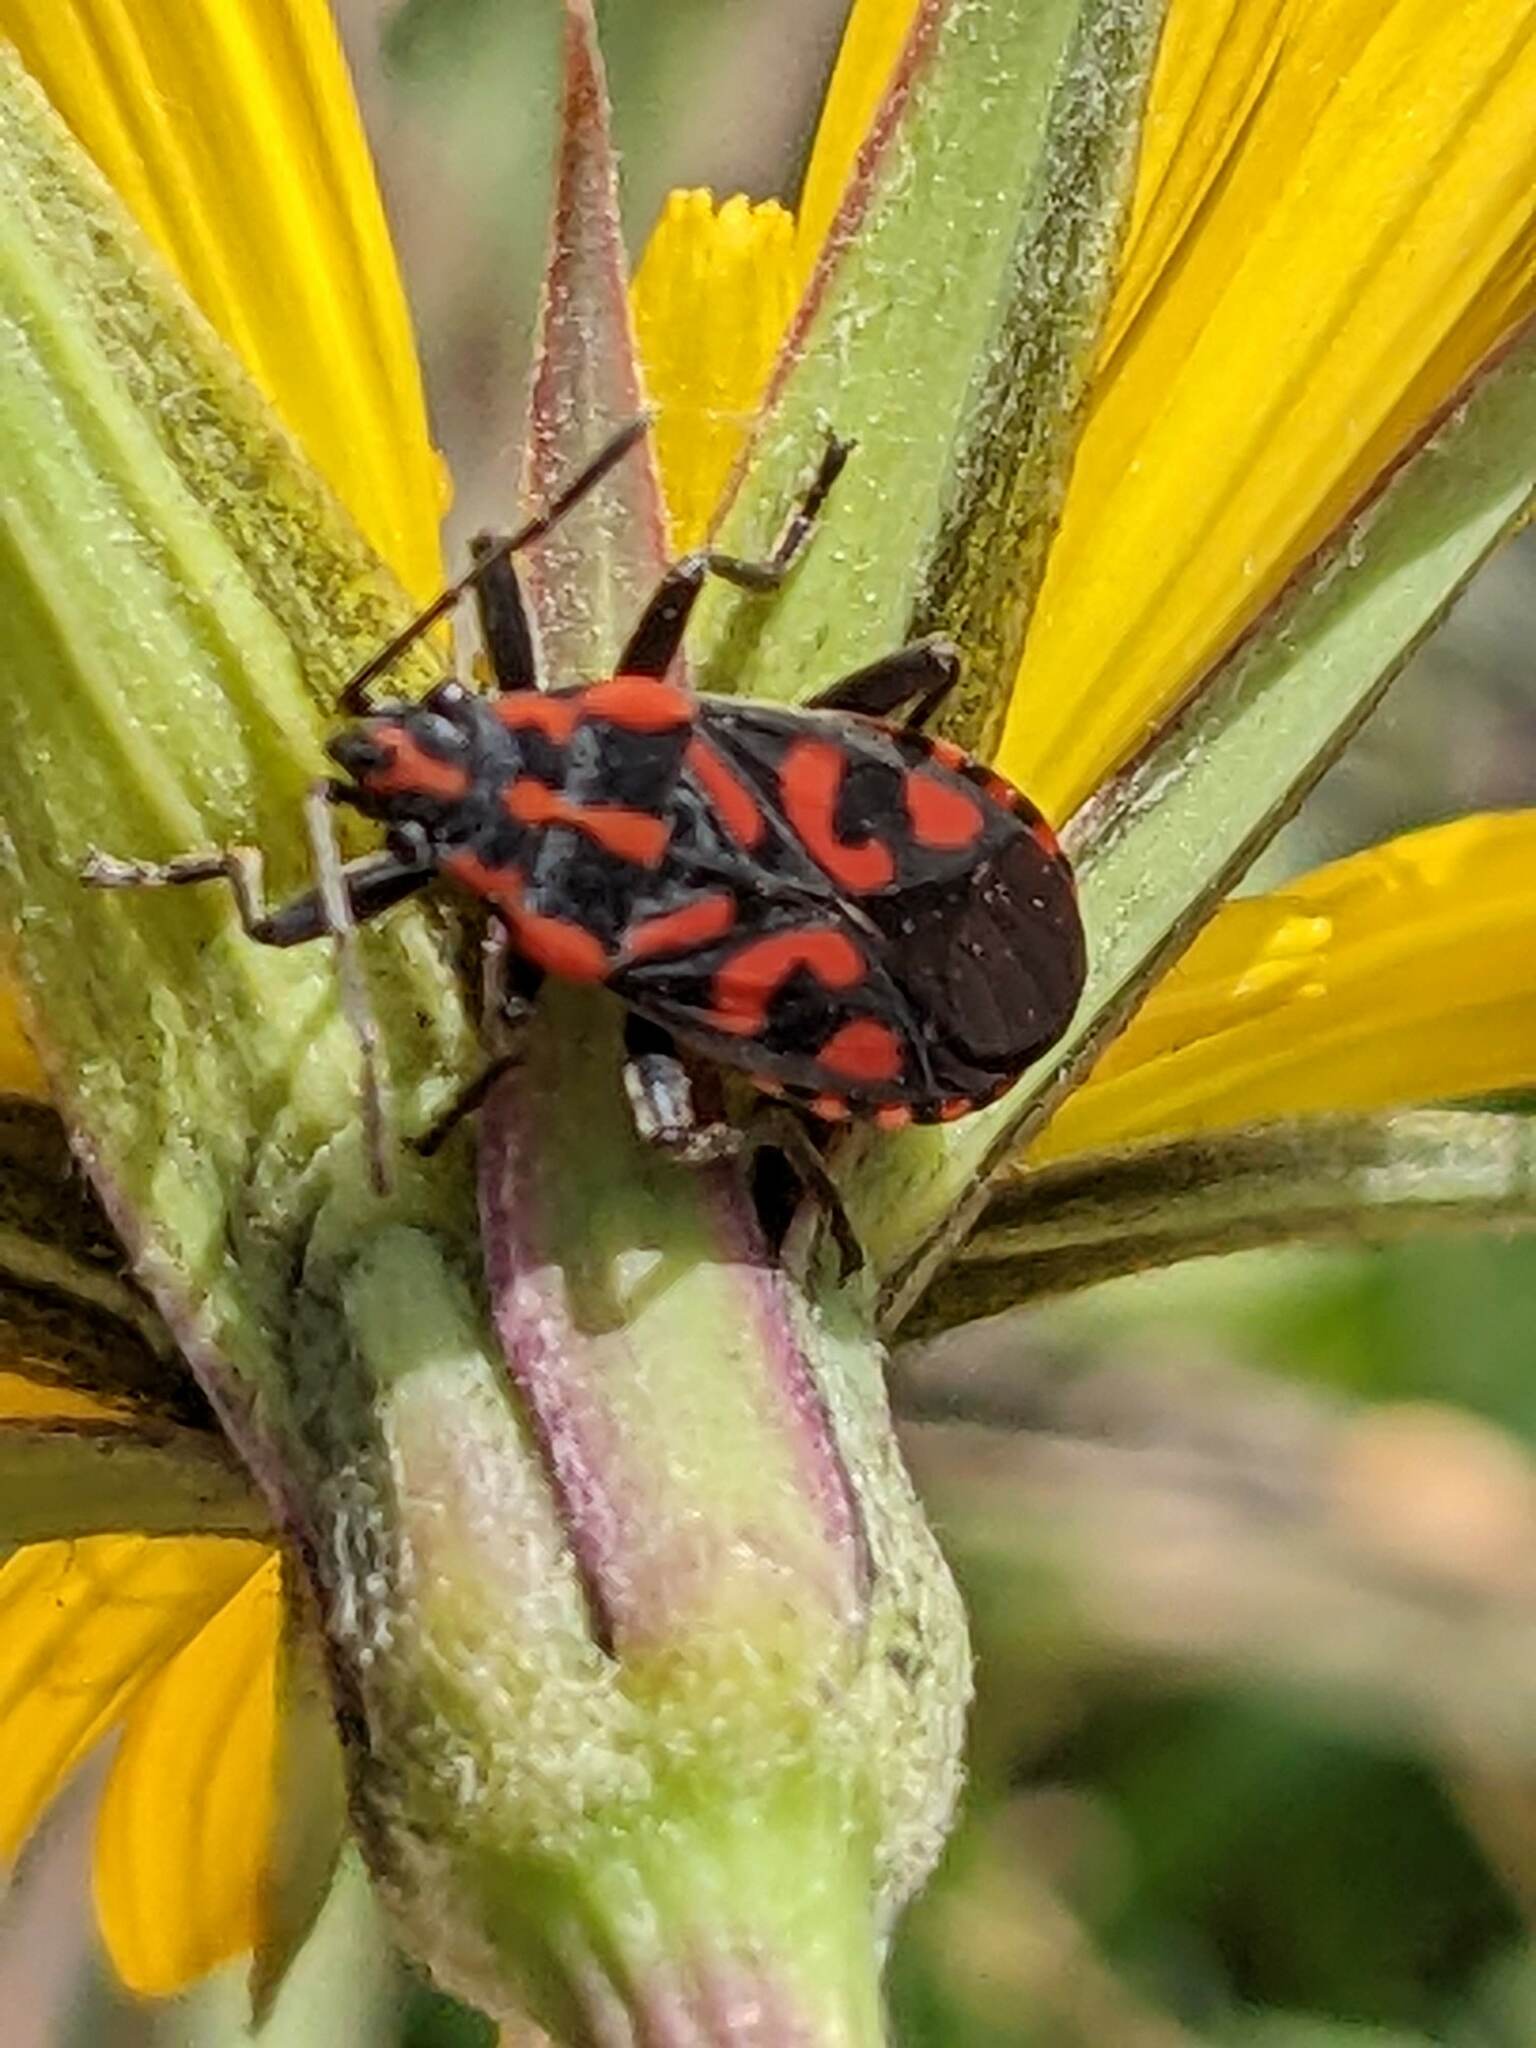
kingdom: Animalia
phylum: Arthropoda
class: Insecta
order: Hemiptera
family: Lygaeidae
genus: Spilostethus
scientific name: Spilostethus saxatilis
